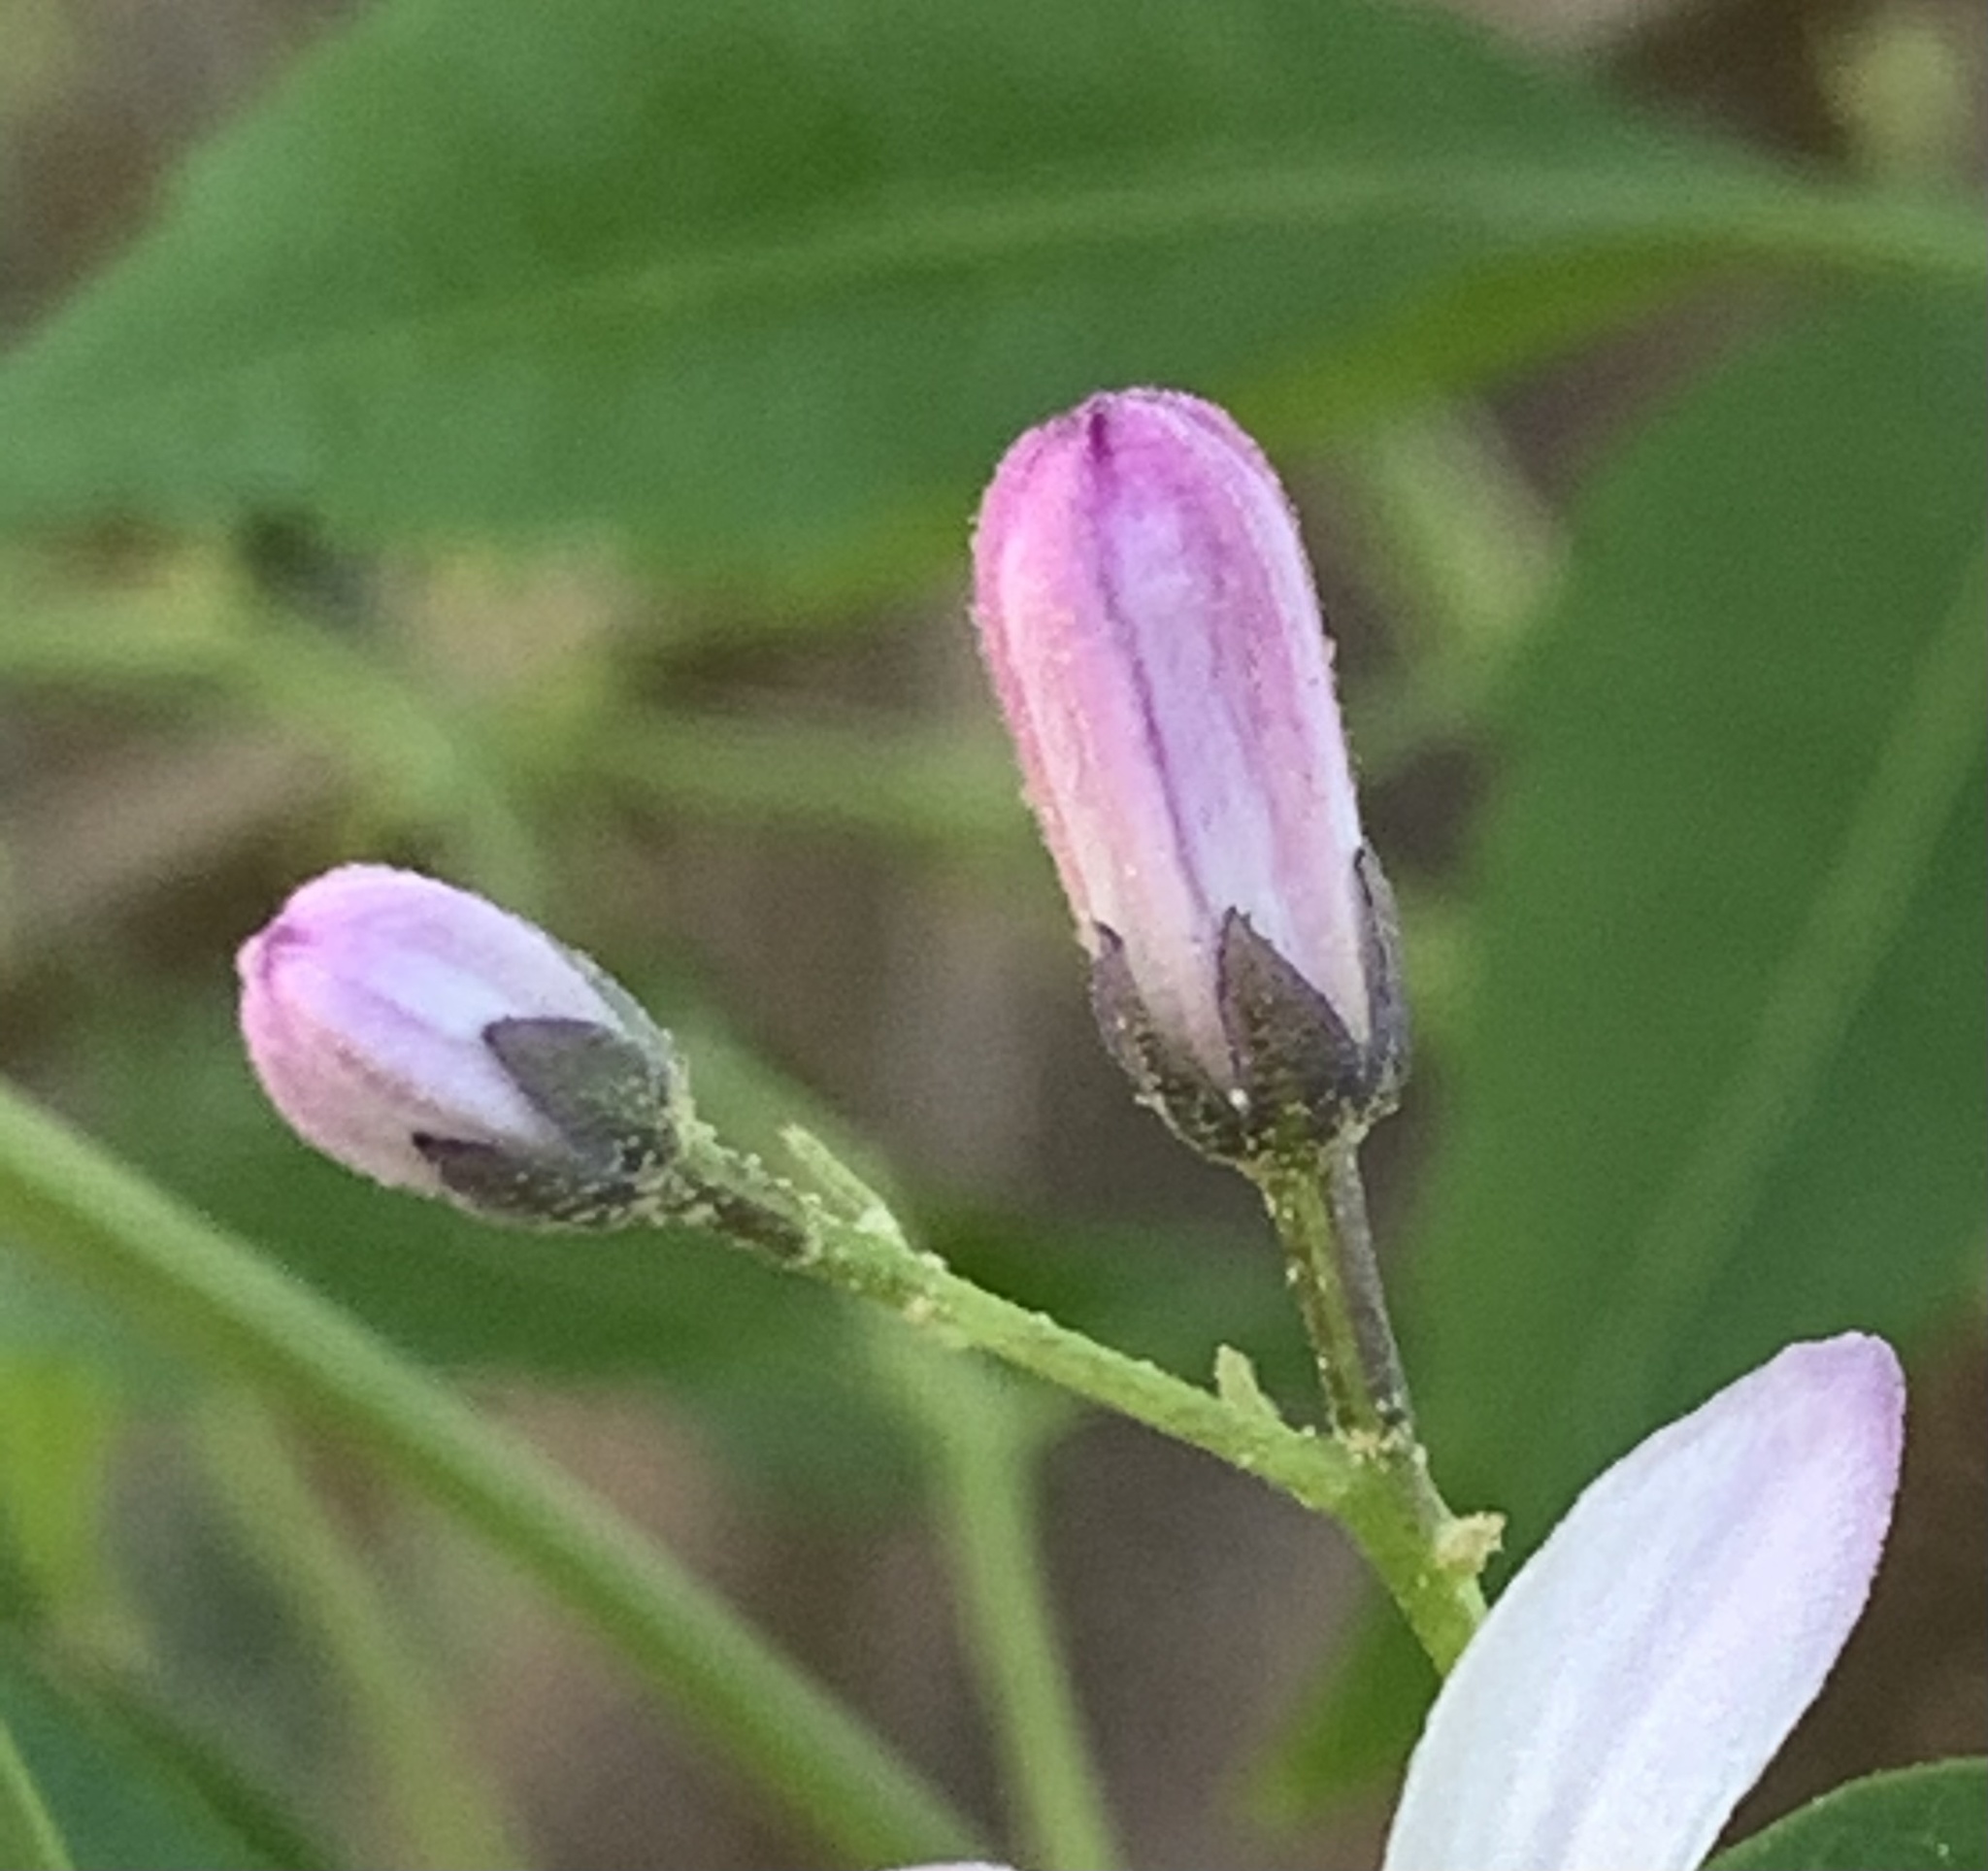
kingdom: Plantae
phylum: Tracheophyta
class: Magnoliopsida
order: Sapindales
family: Meliaceae
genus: Melia
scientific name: Melia azedarach
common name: Chinaberrytree
